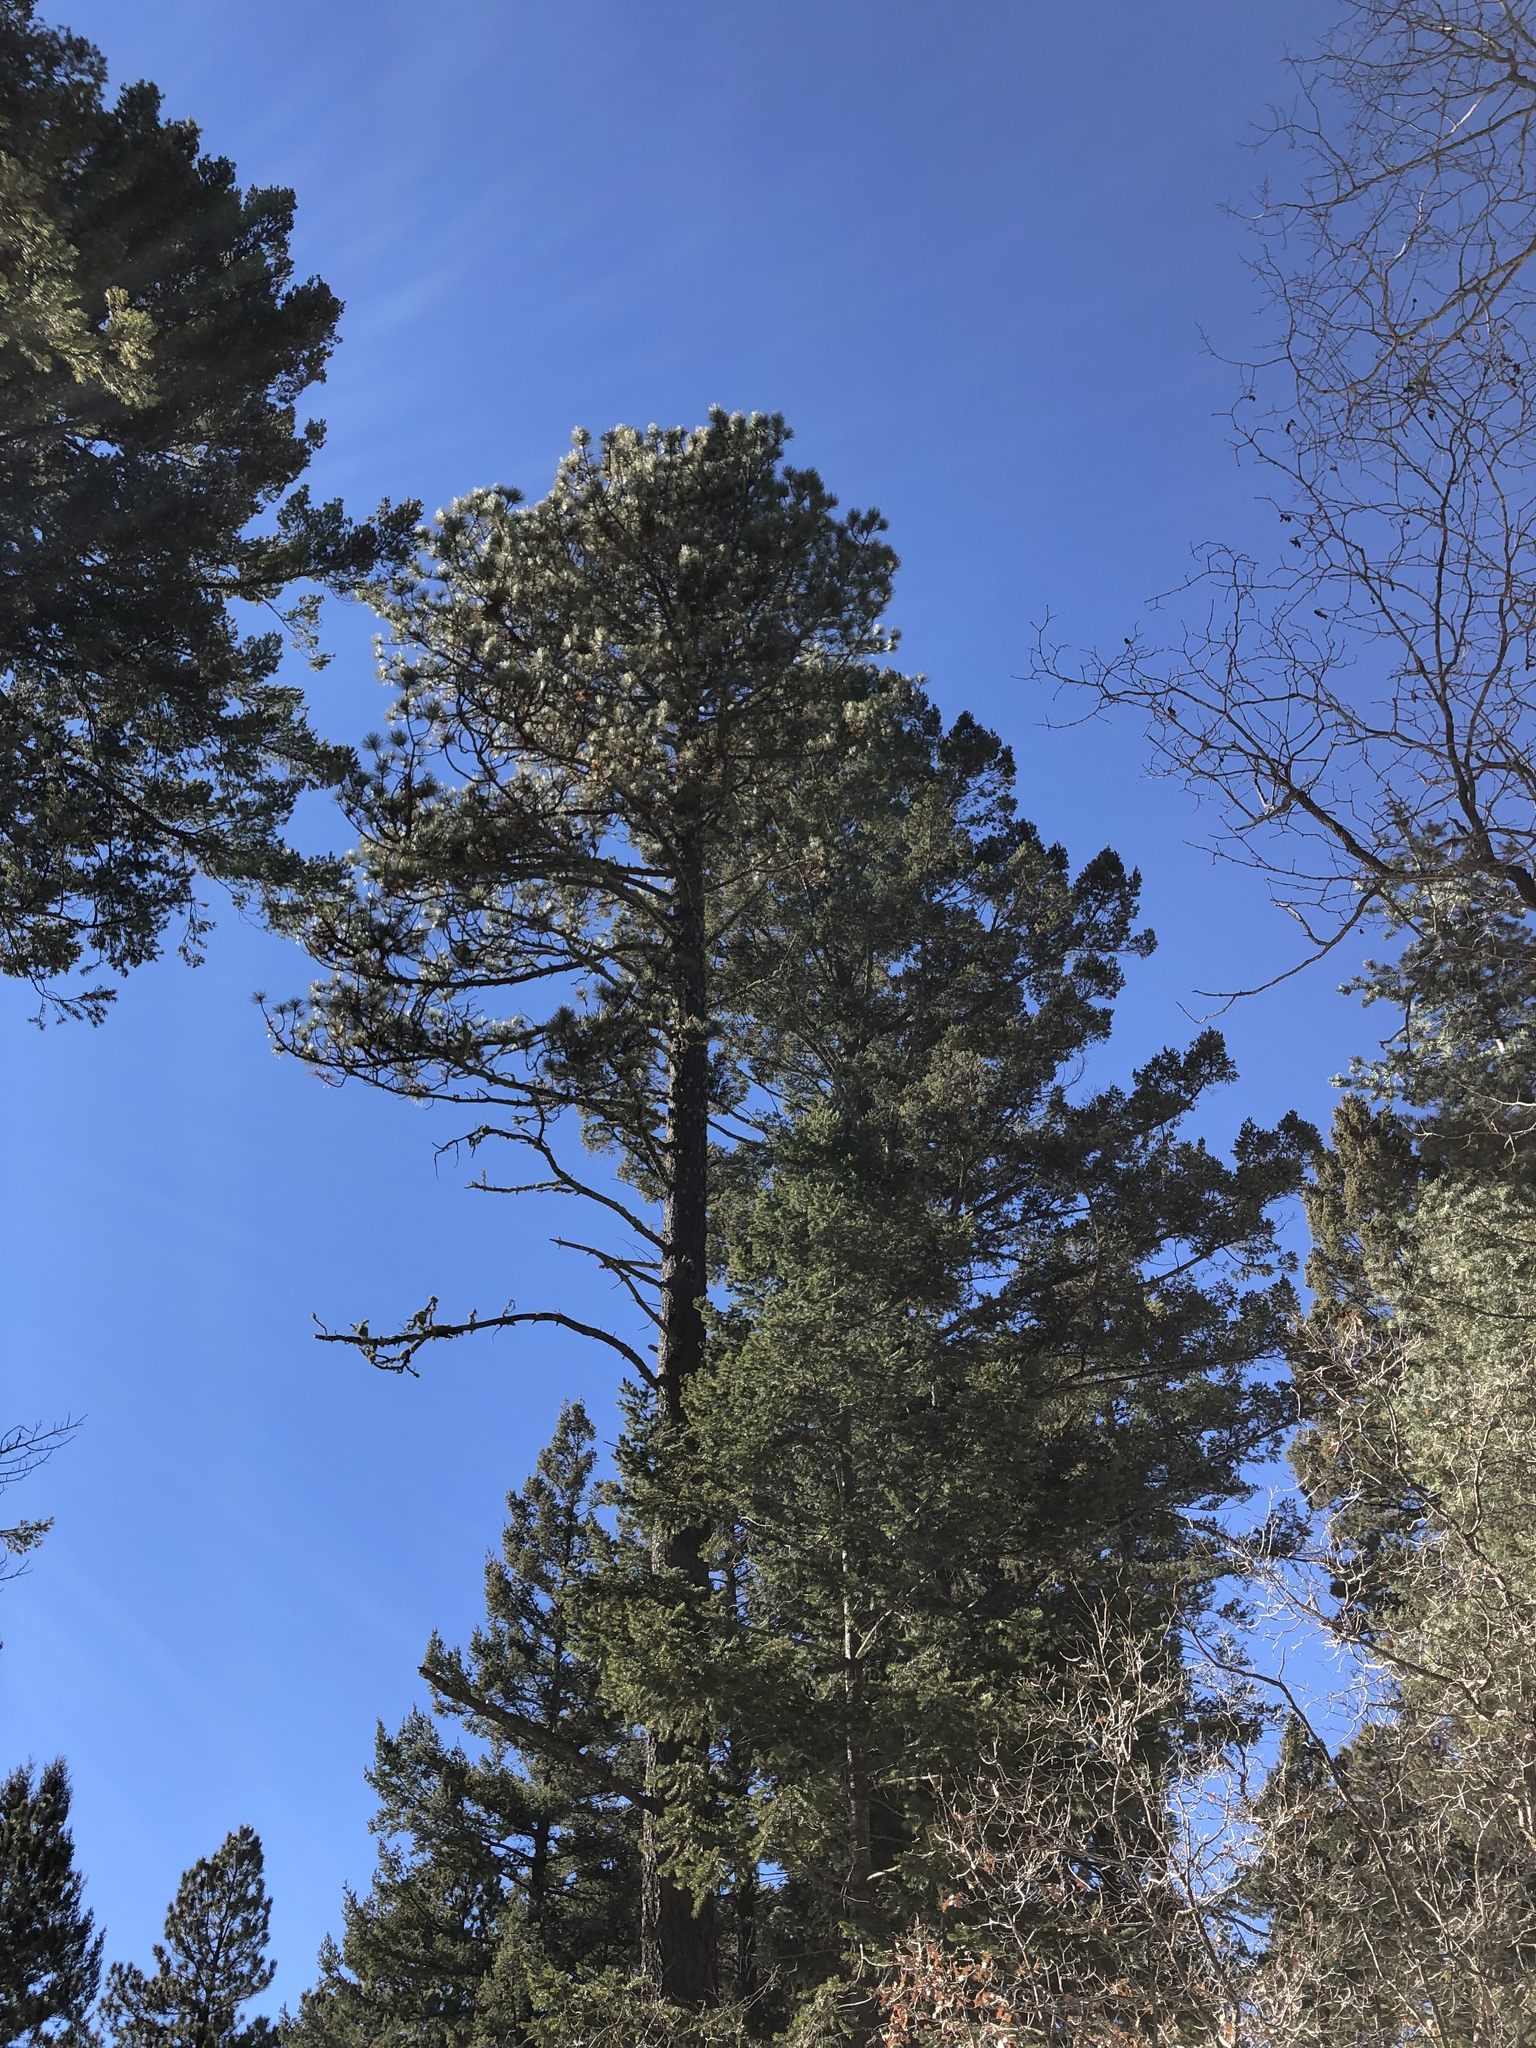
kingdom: Plantae
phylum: Tracheophyta
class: Pinopsida
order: Pinales
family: Pinaceae
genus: Pinus
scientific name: Pinus ponderosa
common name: Western yellow-pine
